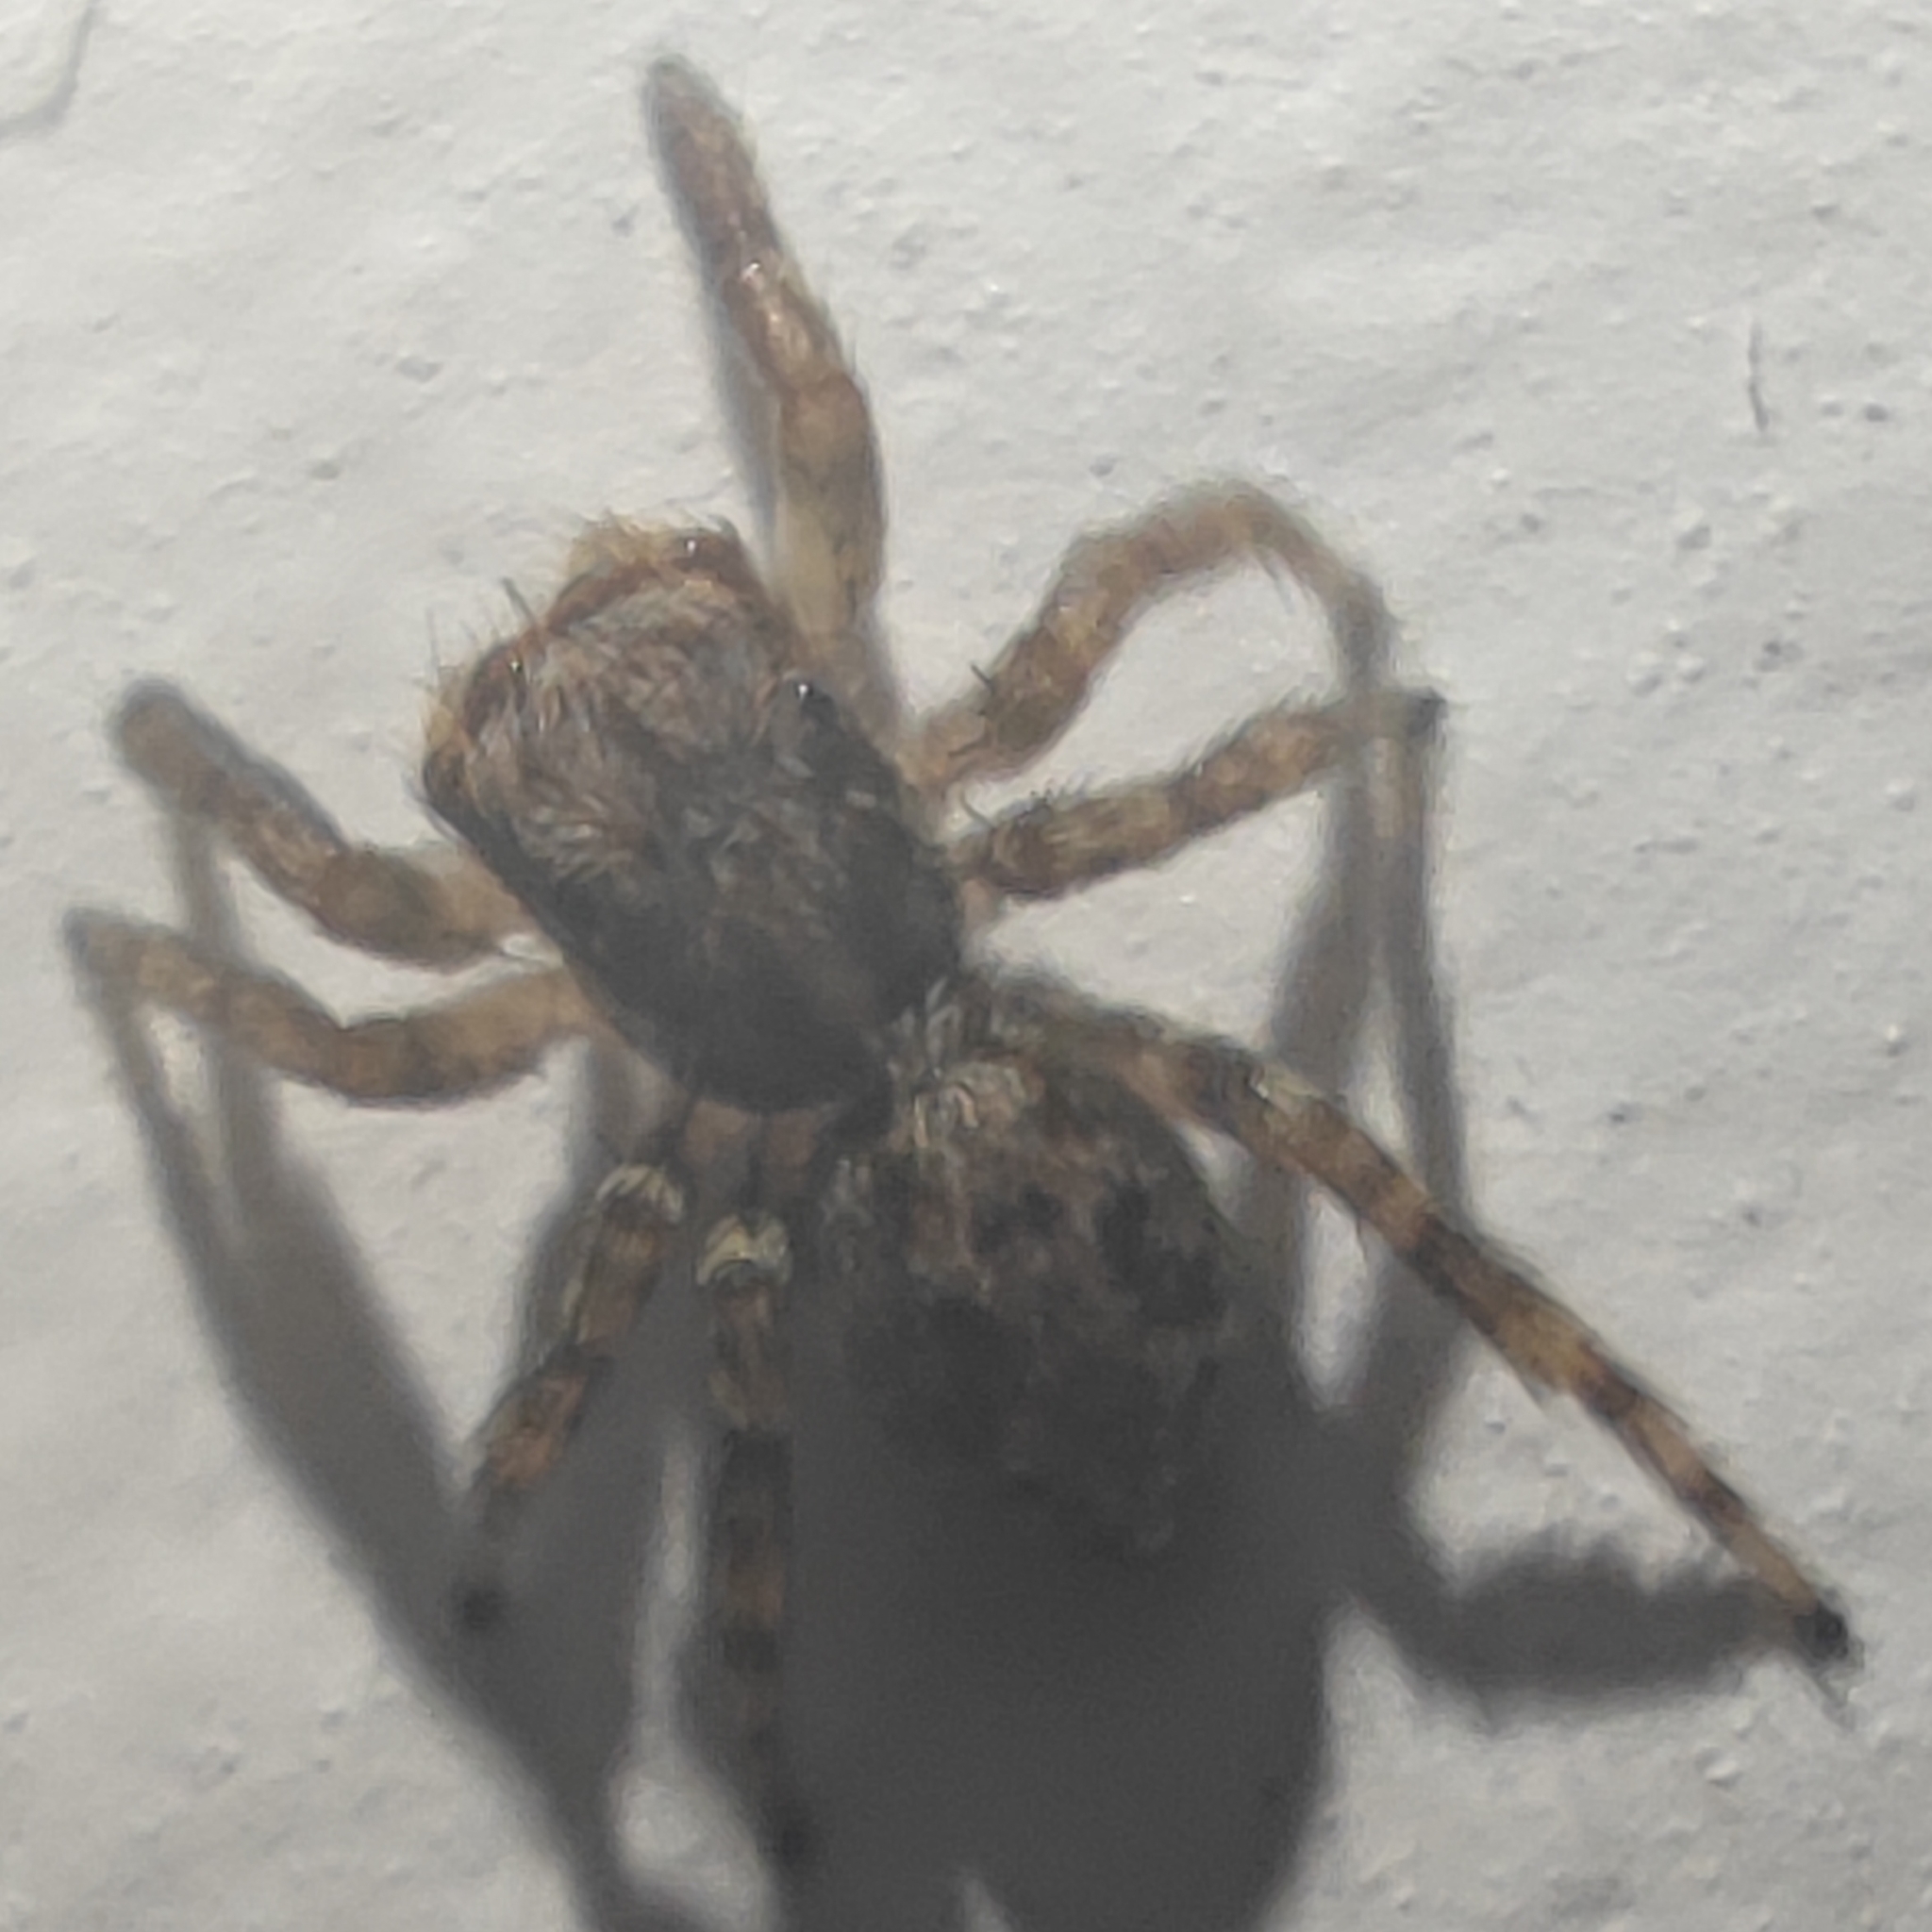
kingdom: Animalia
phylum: Arthropoda
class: Arachnida
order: Araneae
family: Salticidae
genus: Pseudeuophrys
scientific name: Pseudeuophrys lanigera
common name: Jumping spider
